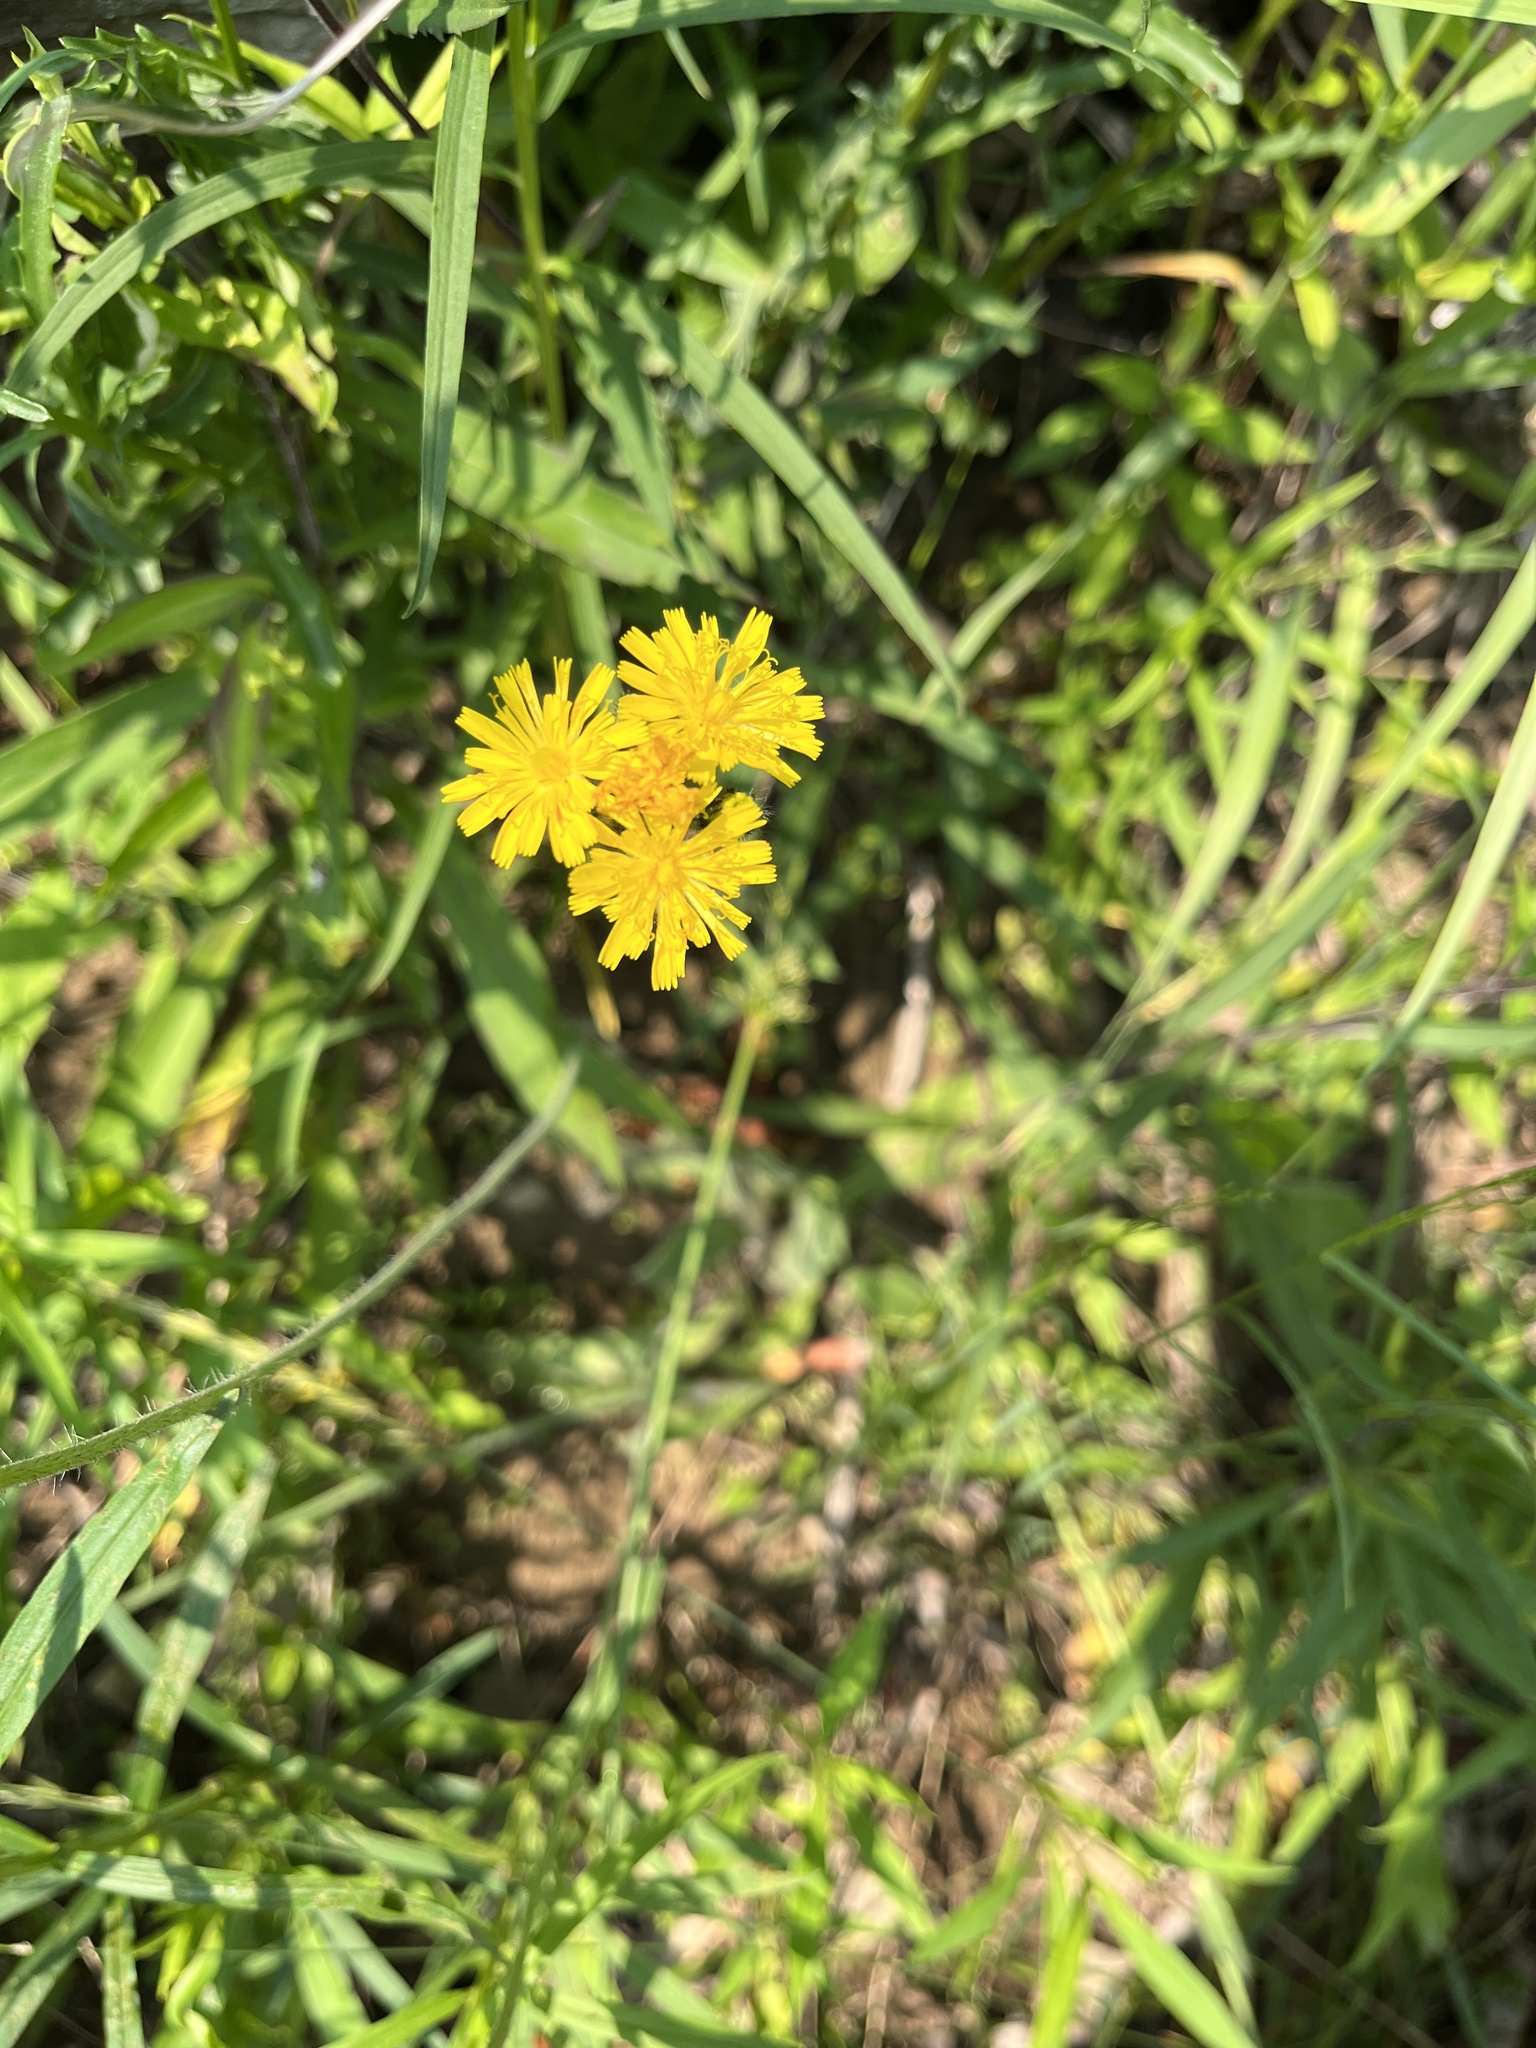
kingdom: Plantae
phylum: Tracheophyta
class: Magnoliopsida
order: Asterales
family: Asteraceae
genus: Pilosella
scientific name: Pilosella caespitosa
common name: Yellow fox-and-cubs
